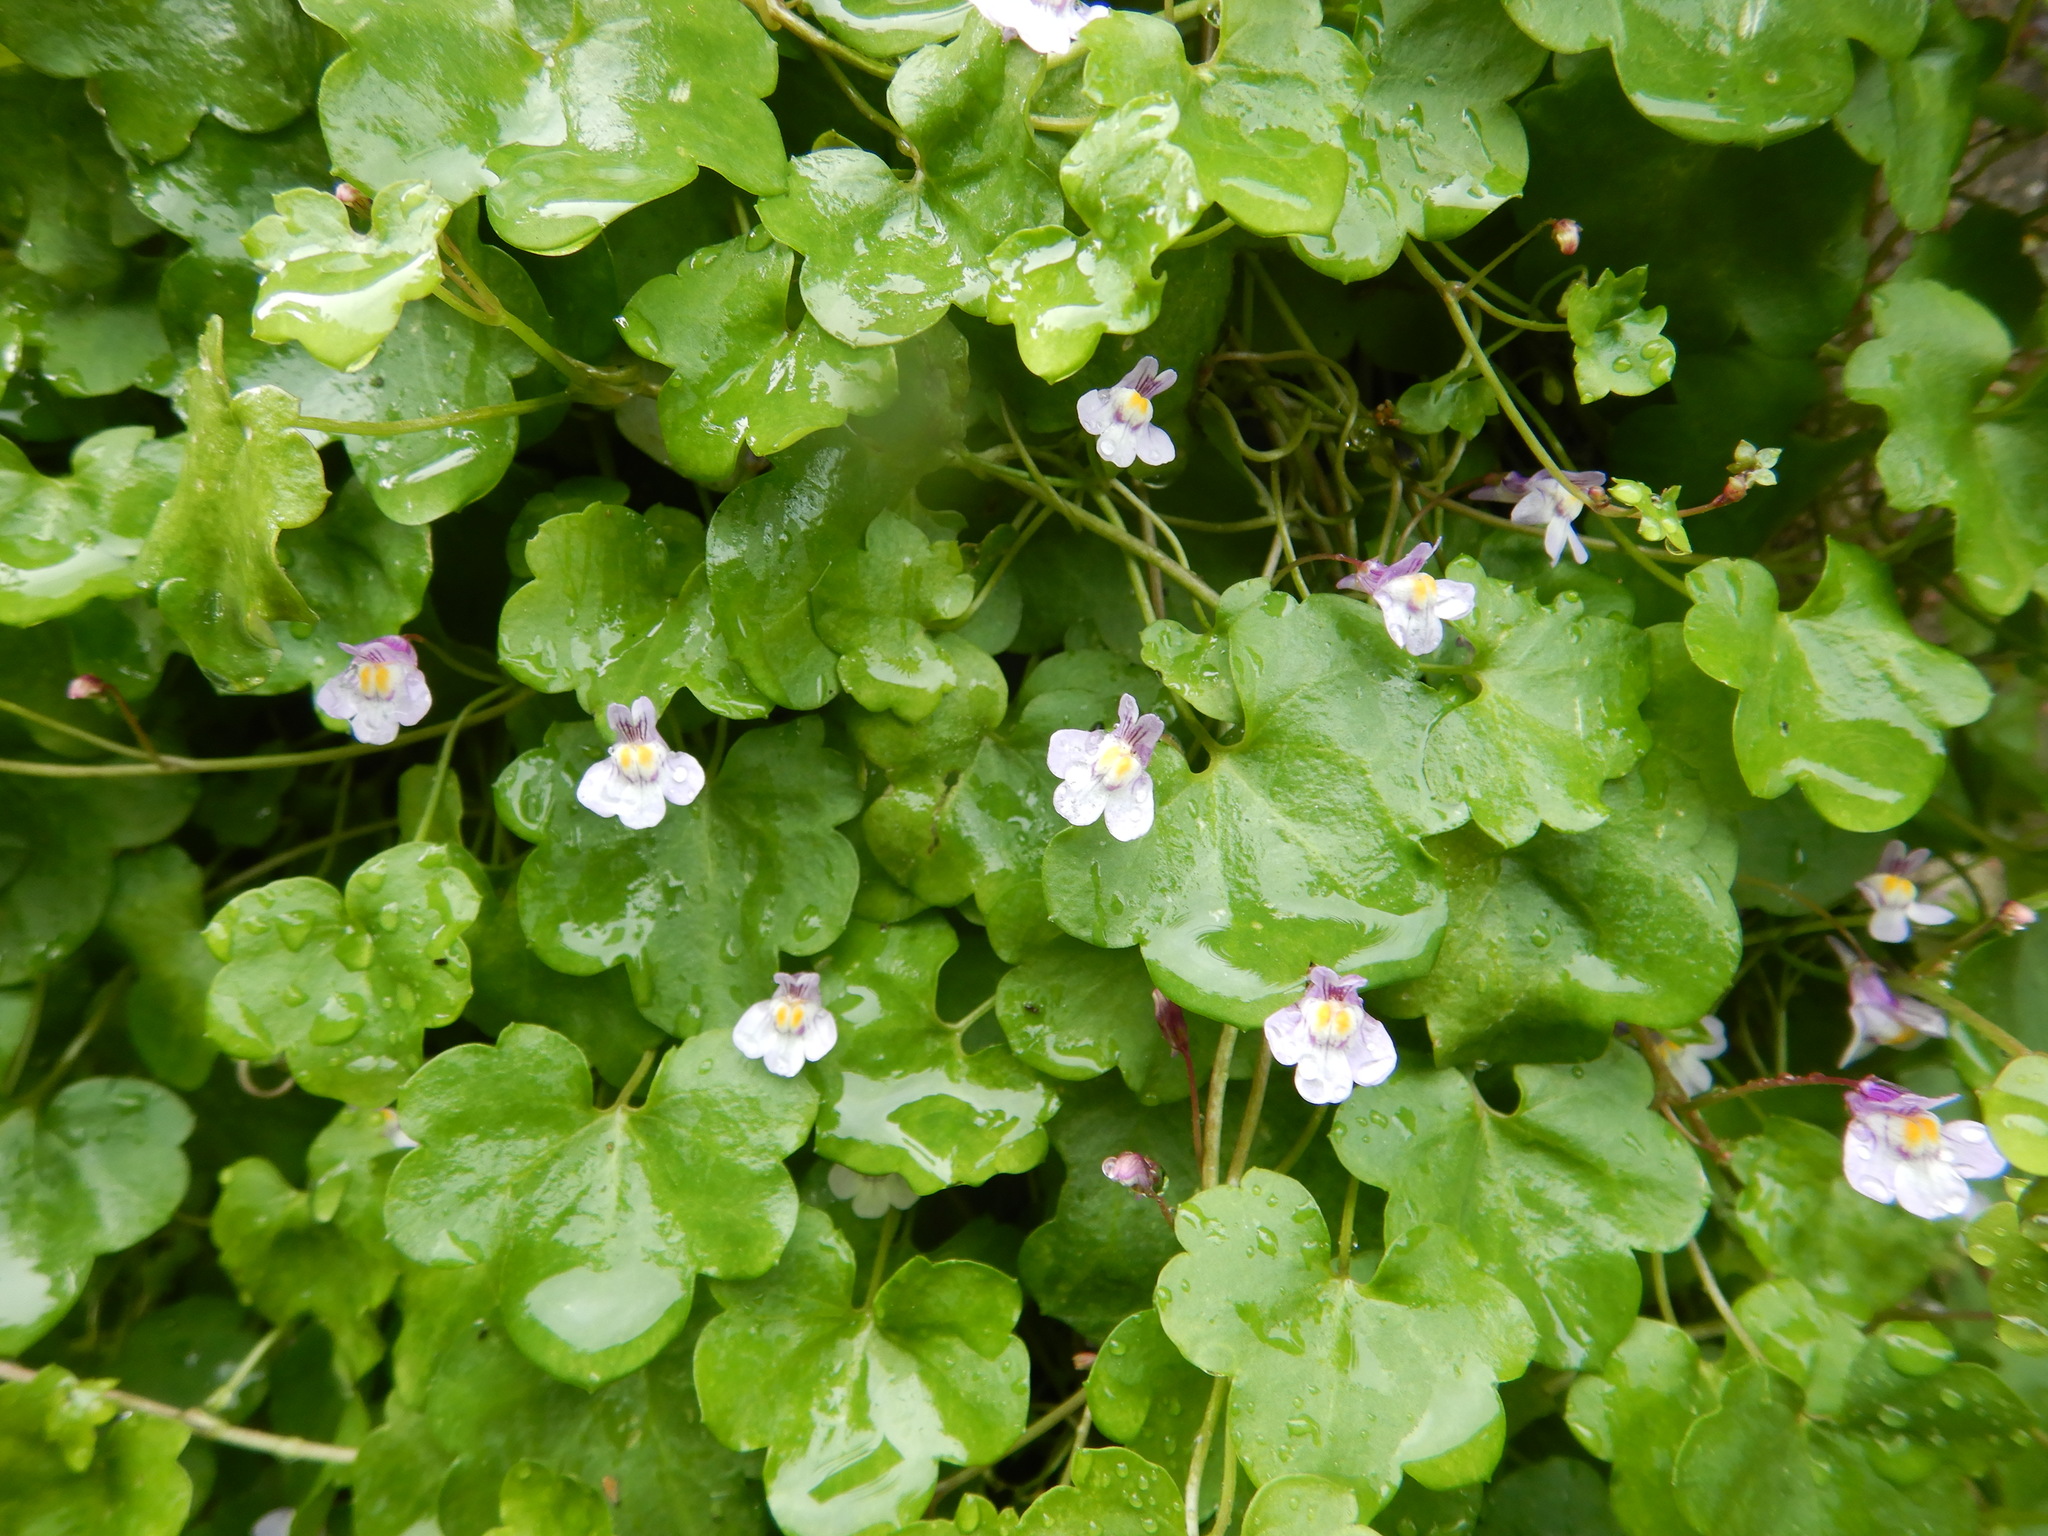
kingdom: Plantae
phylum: Tracheophyta
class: Magnoliopsida
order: Lamiales
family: Plantaginaceae
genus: Cymbalaria
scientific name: Cymbalaria muralis
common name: Ivy-leaved toadflax
